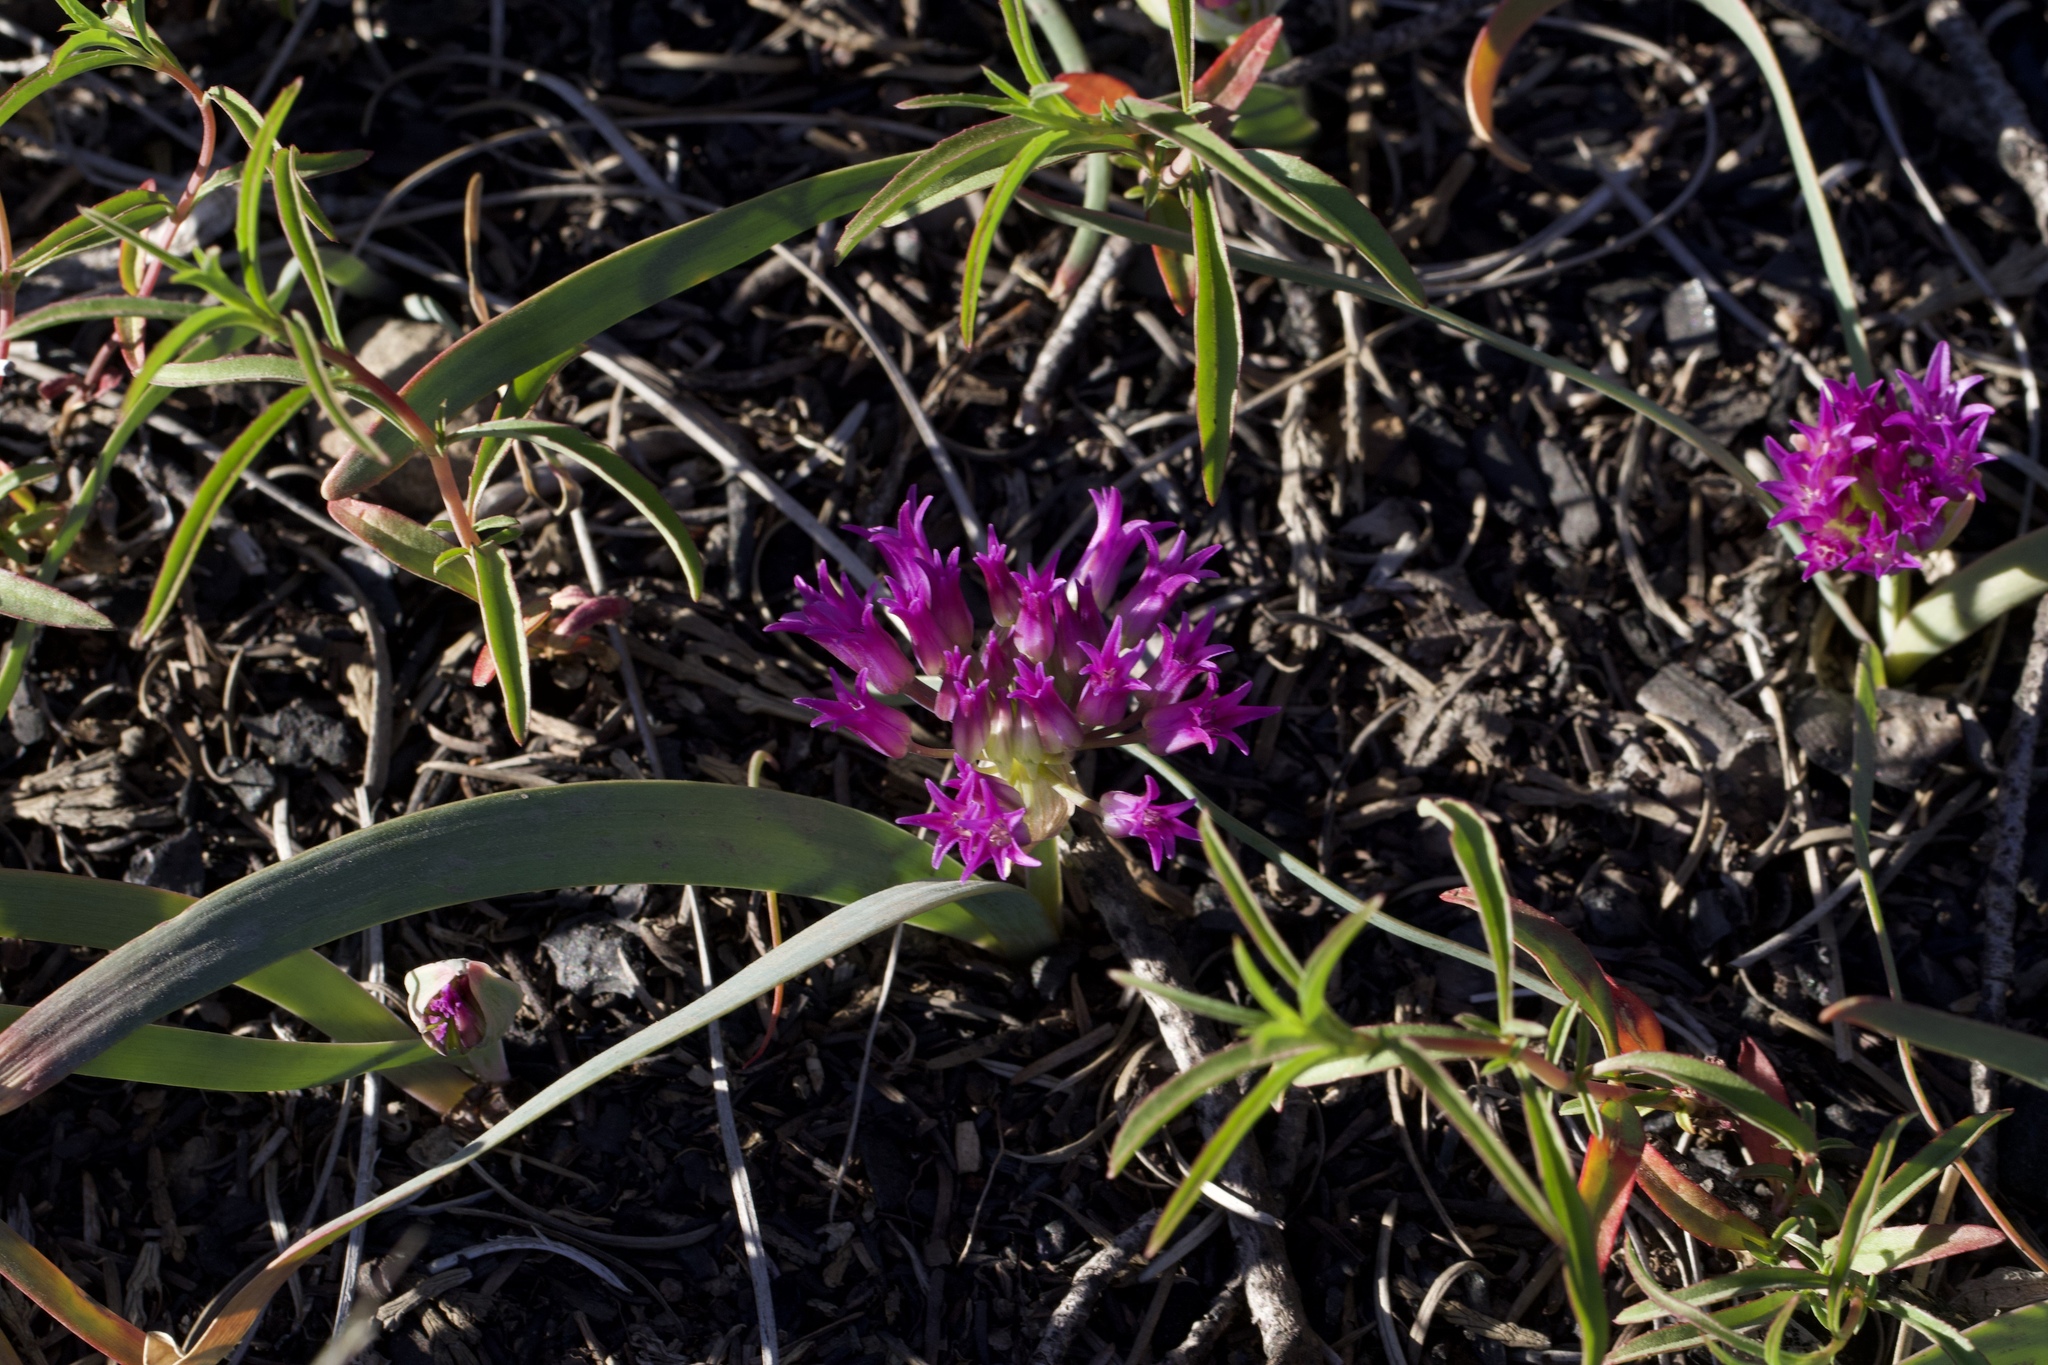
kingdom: Plantae
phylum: Tracheophyta
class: Liliopsida
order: Asparagales
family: Amaryllidaceae
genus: Allium
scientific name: Allium falcifolium
